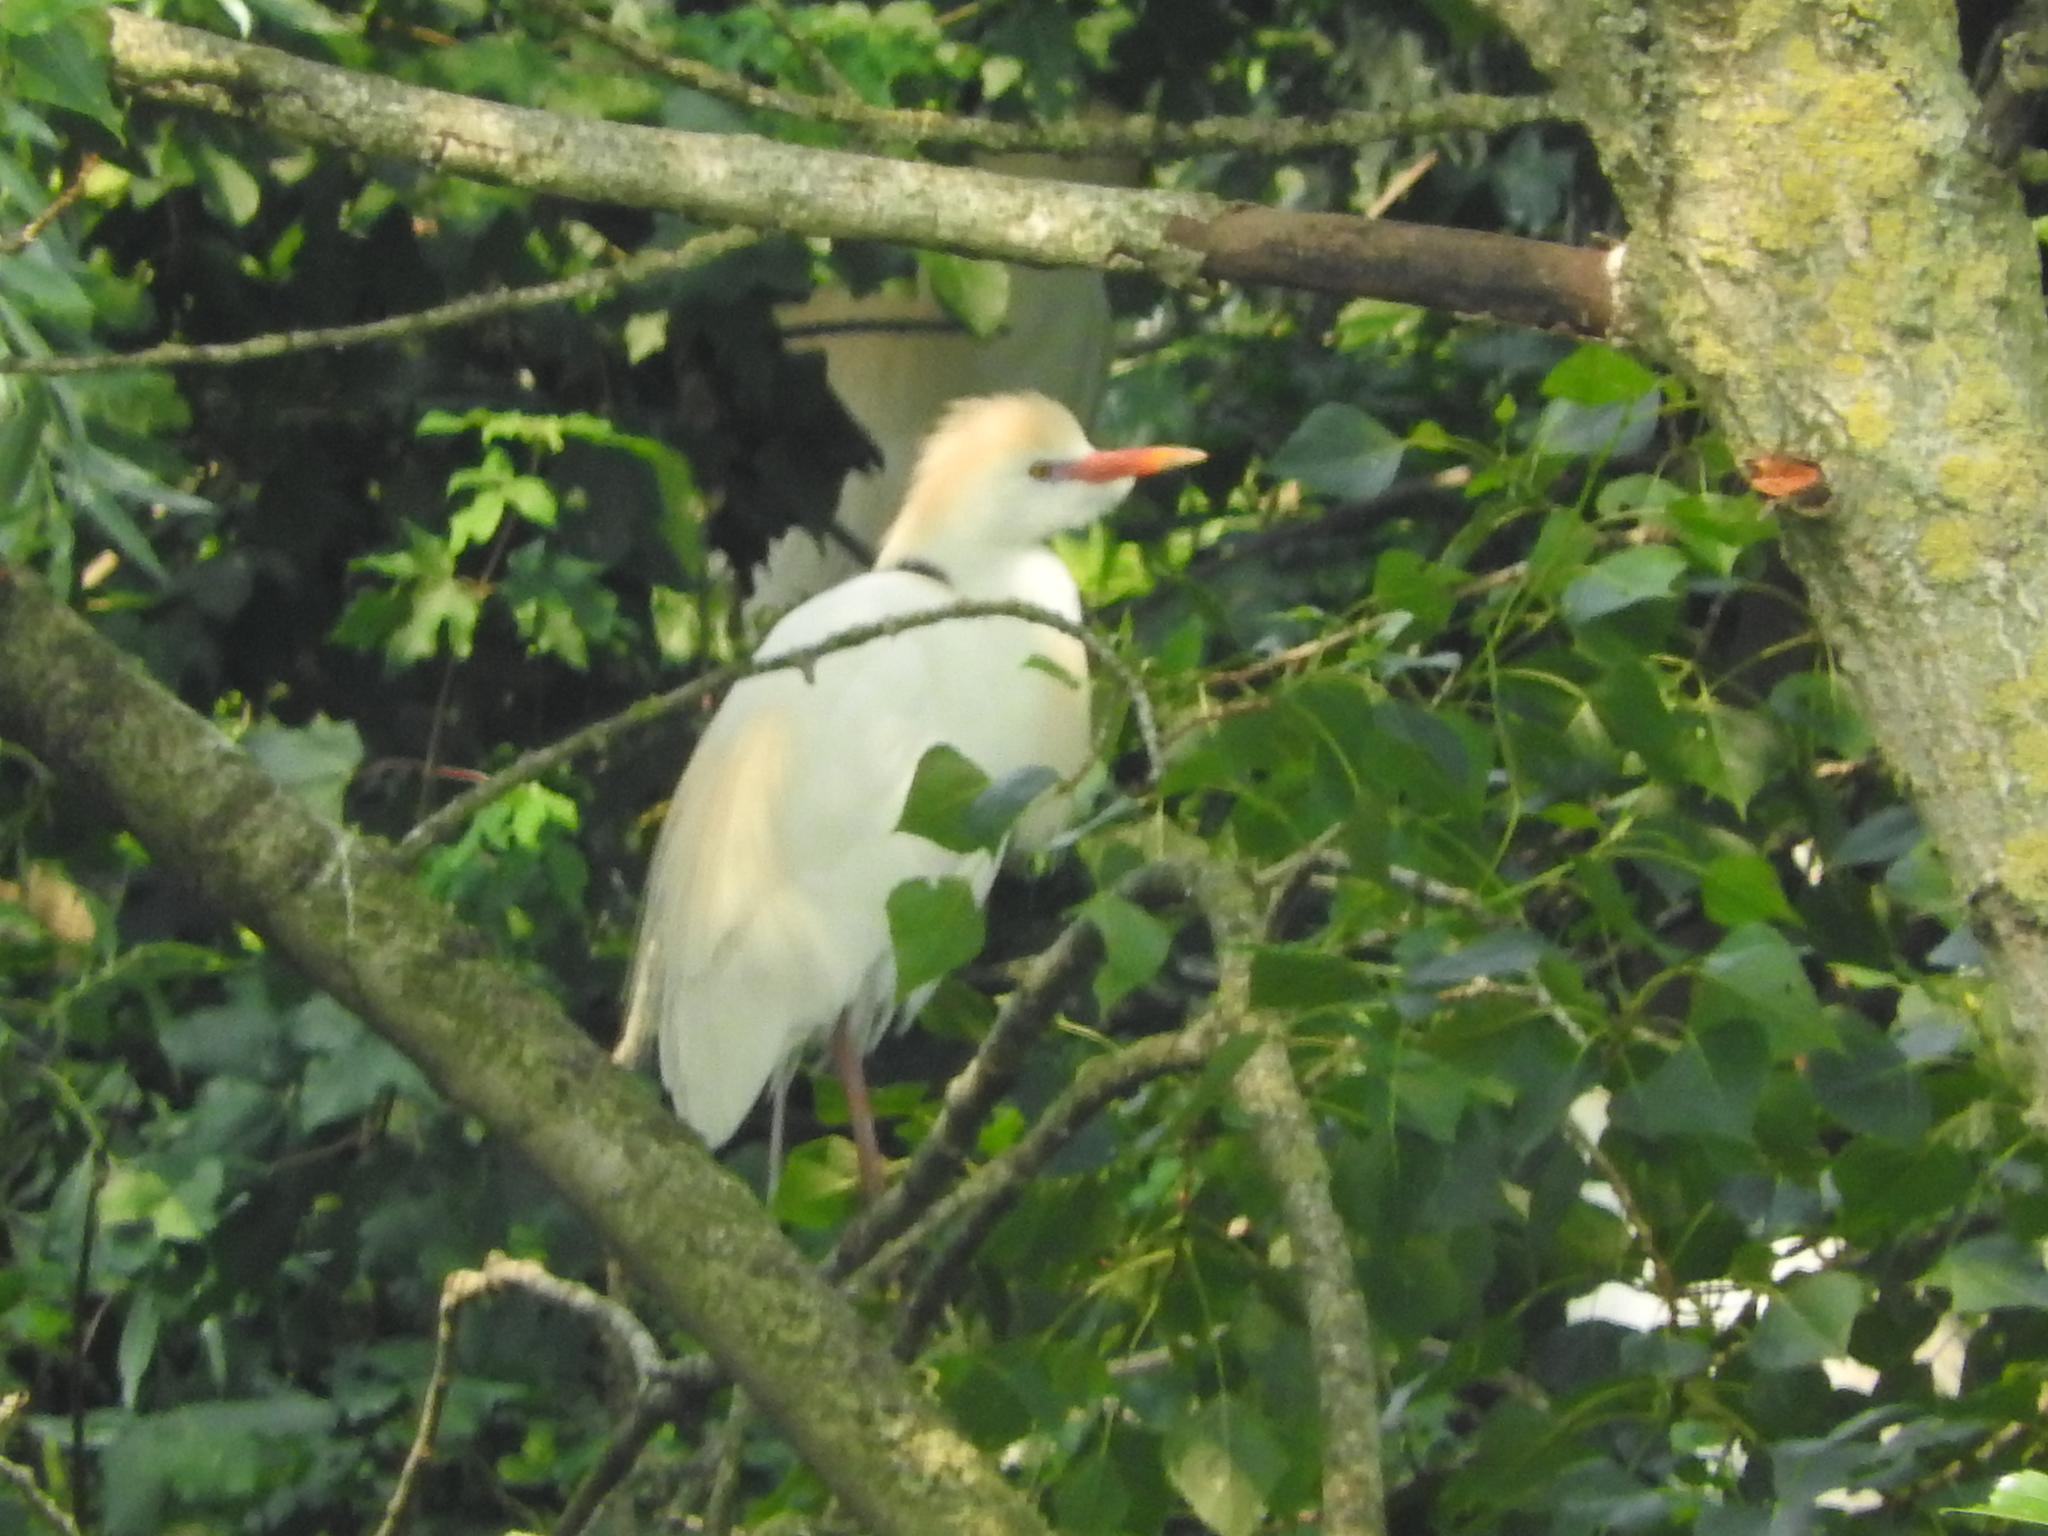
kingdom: Animalia
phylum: Chordata
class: Aves
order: Pelecaniformes
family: Ardeidae
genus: Bubulcus
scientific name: Bubulcus ibis
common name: Cattle egret
